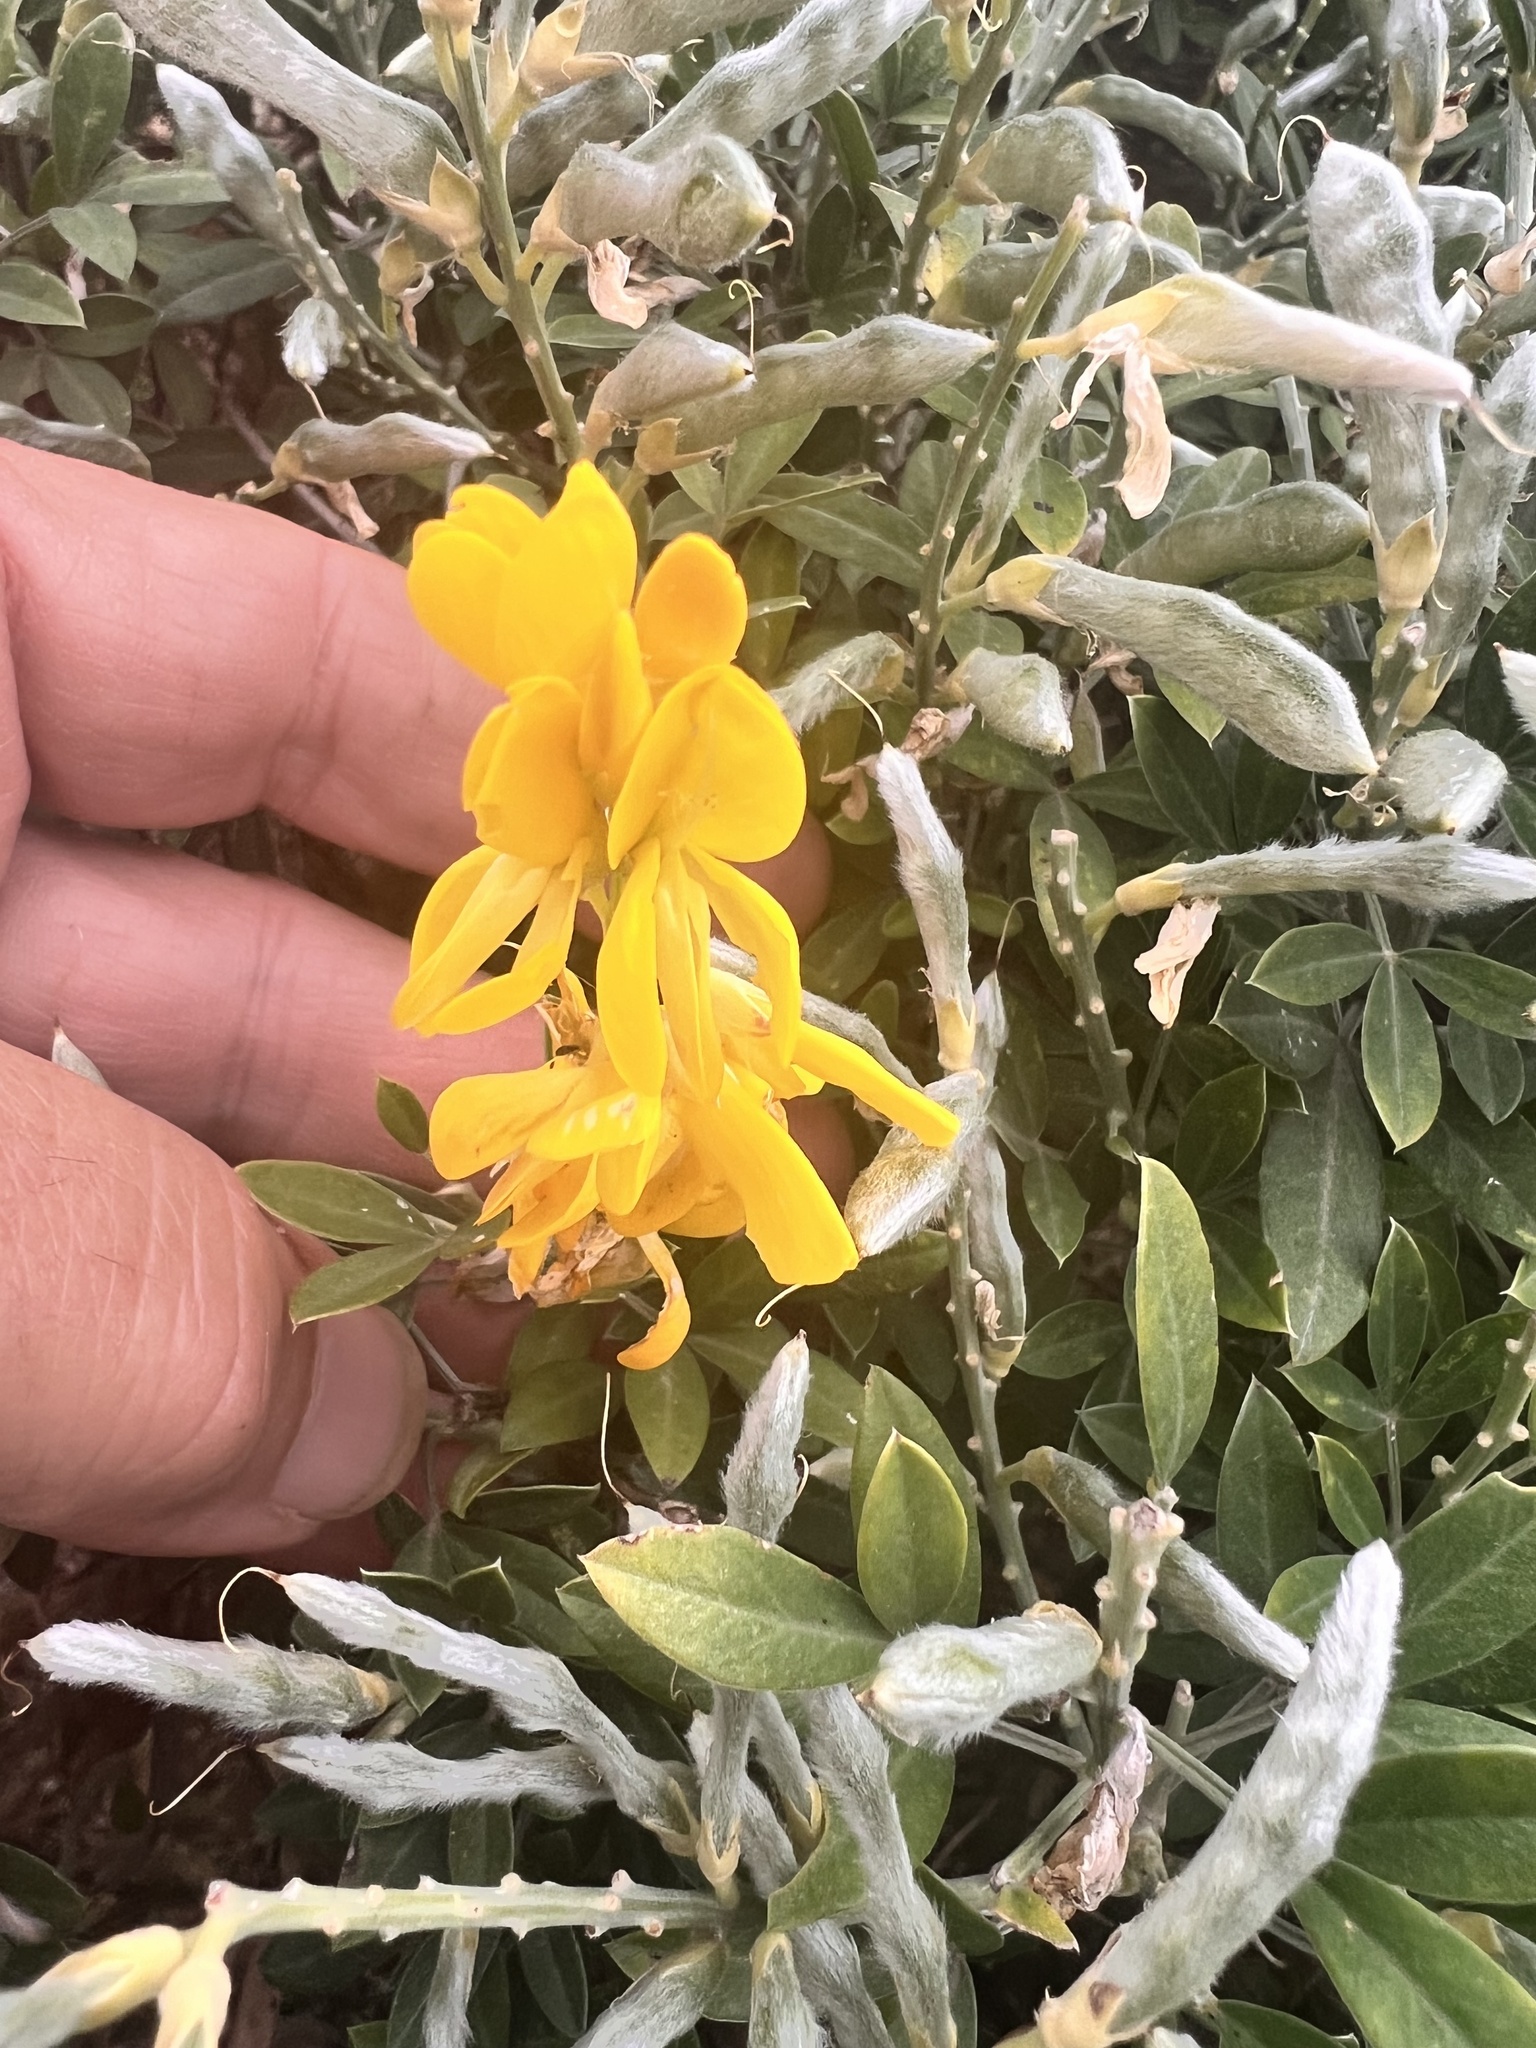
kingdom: Plantae
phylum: Tracheophyta
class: Magnoliopsida
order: Fabales
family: Fabaceae
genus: Genista
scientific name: Genista stenopetala
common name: Leafy broom
